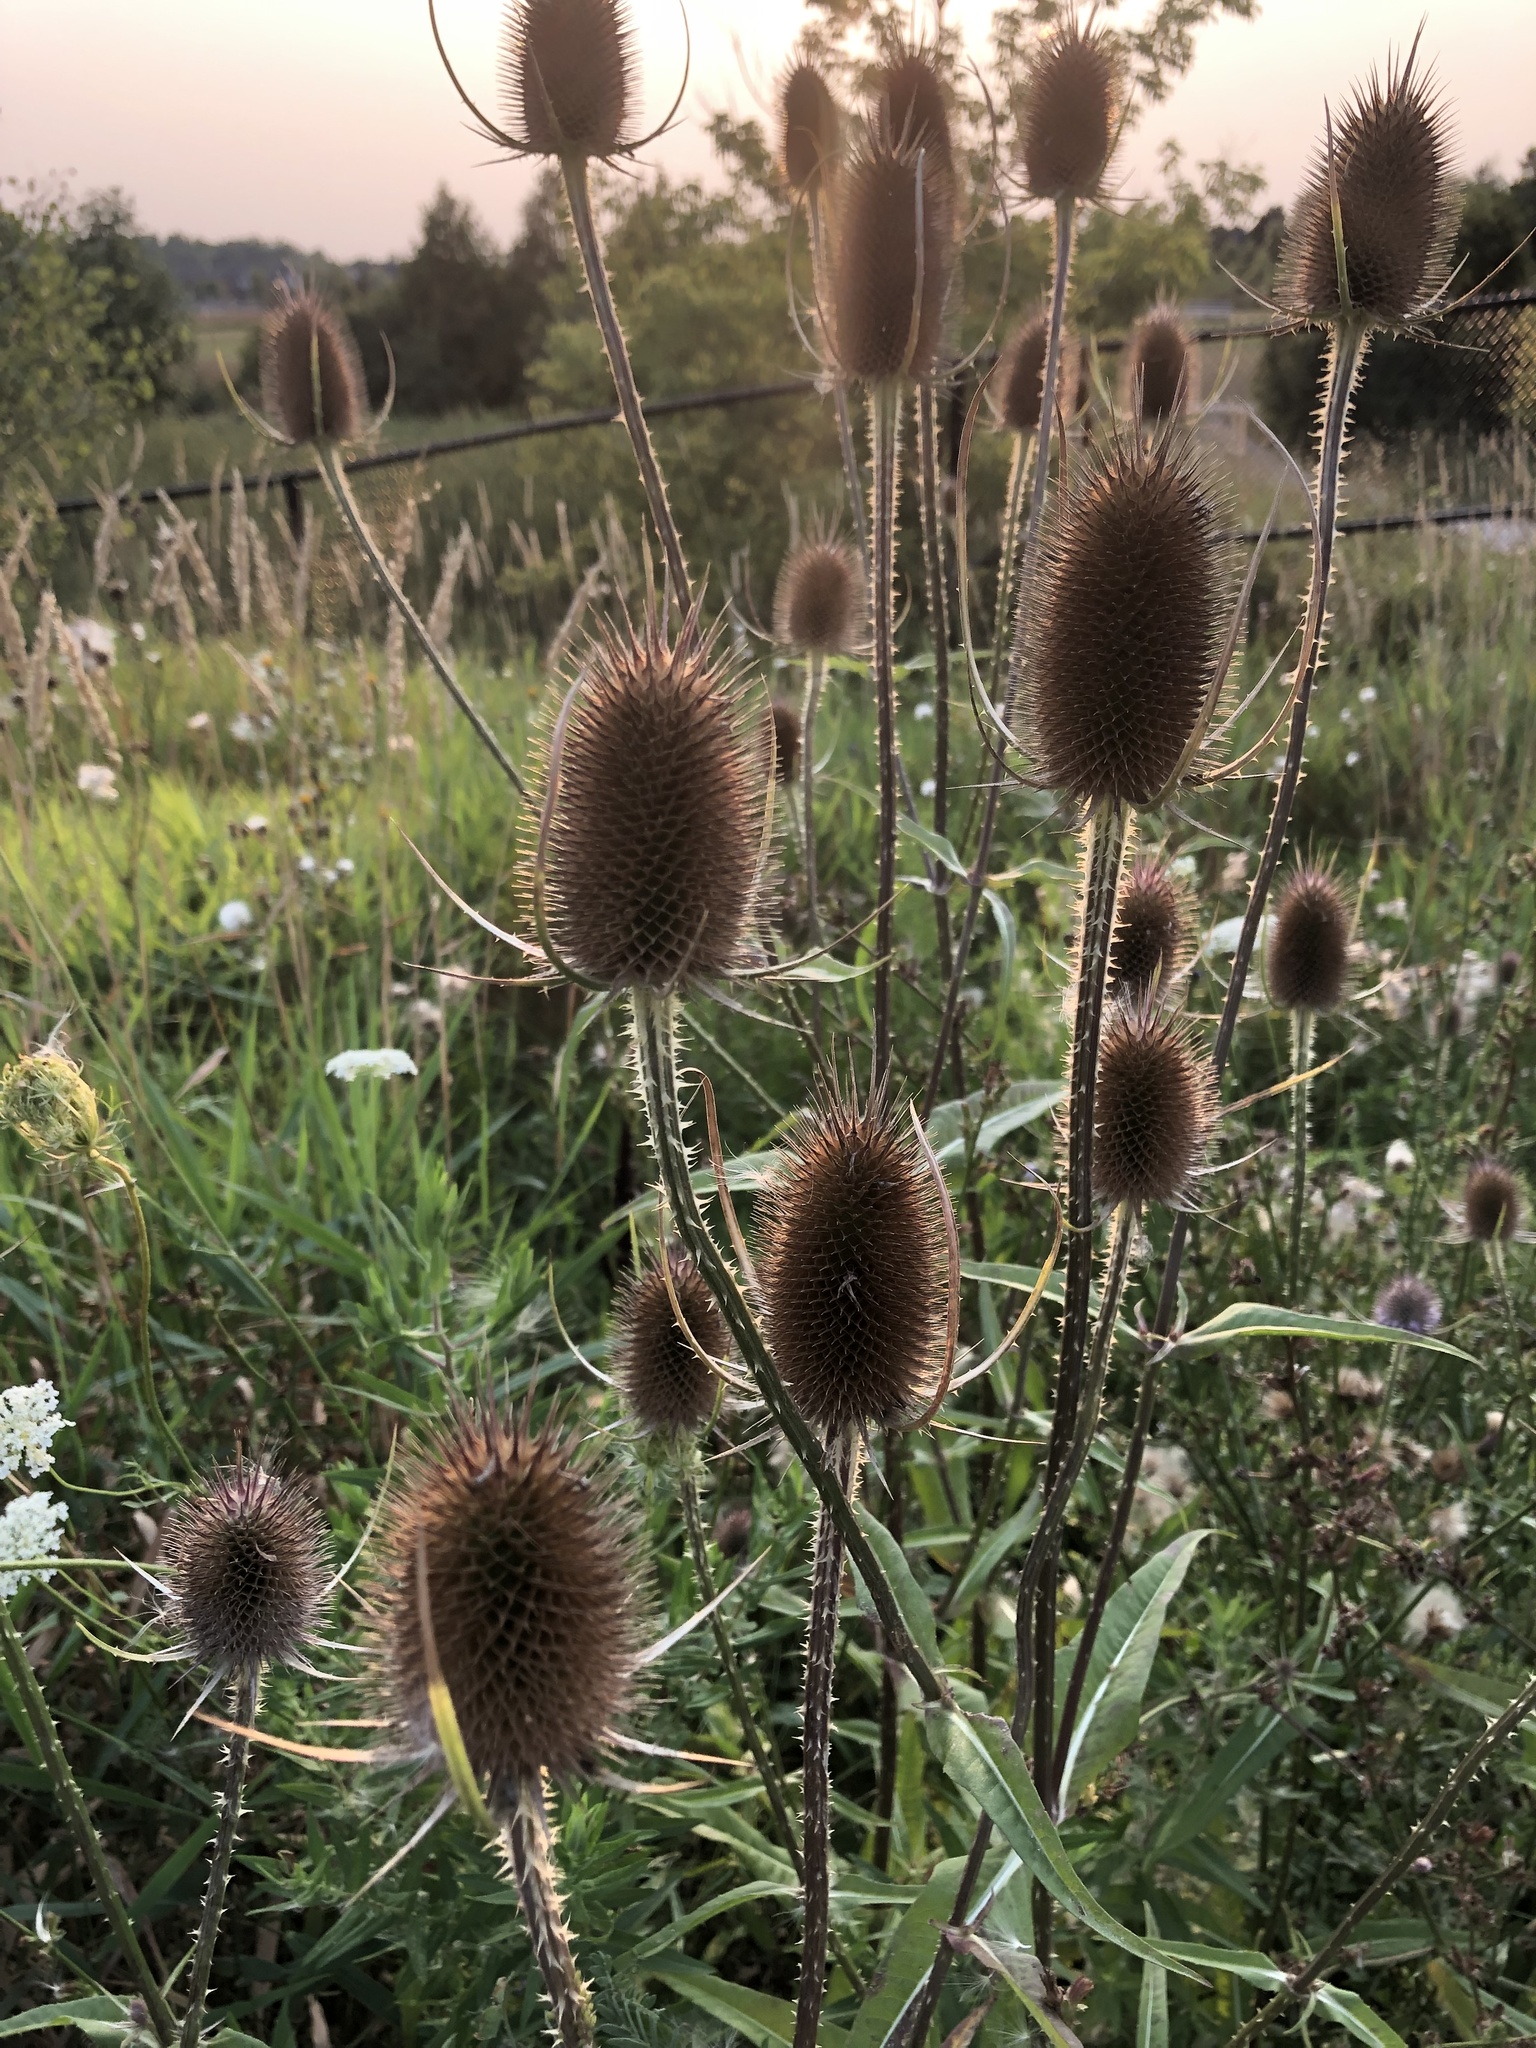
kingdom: Plantae
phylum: Tracheophyta
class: Magnoliopsida
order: Dipsacales
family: Caprifoliaceae
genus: Dipsacus
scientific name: Dipsacus fullonum
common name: Teasel
